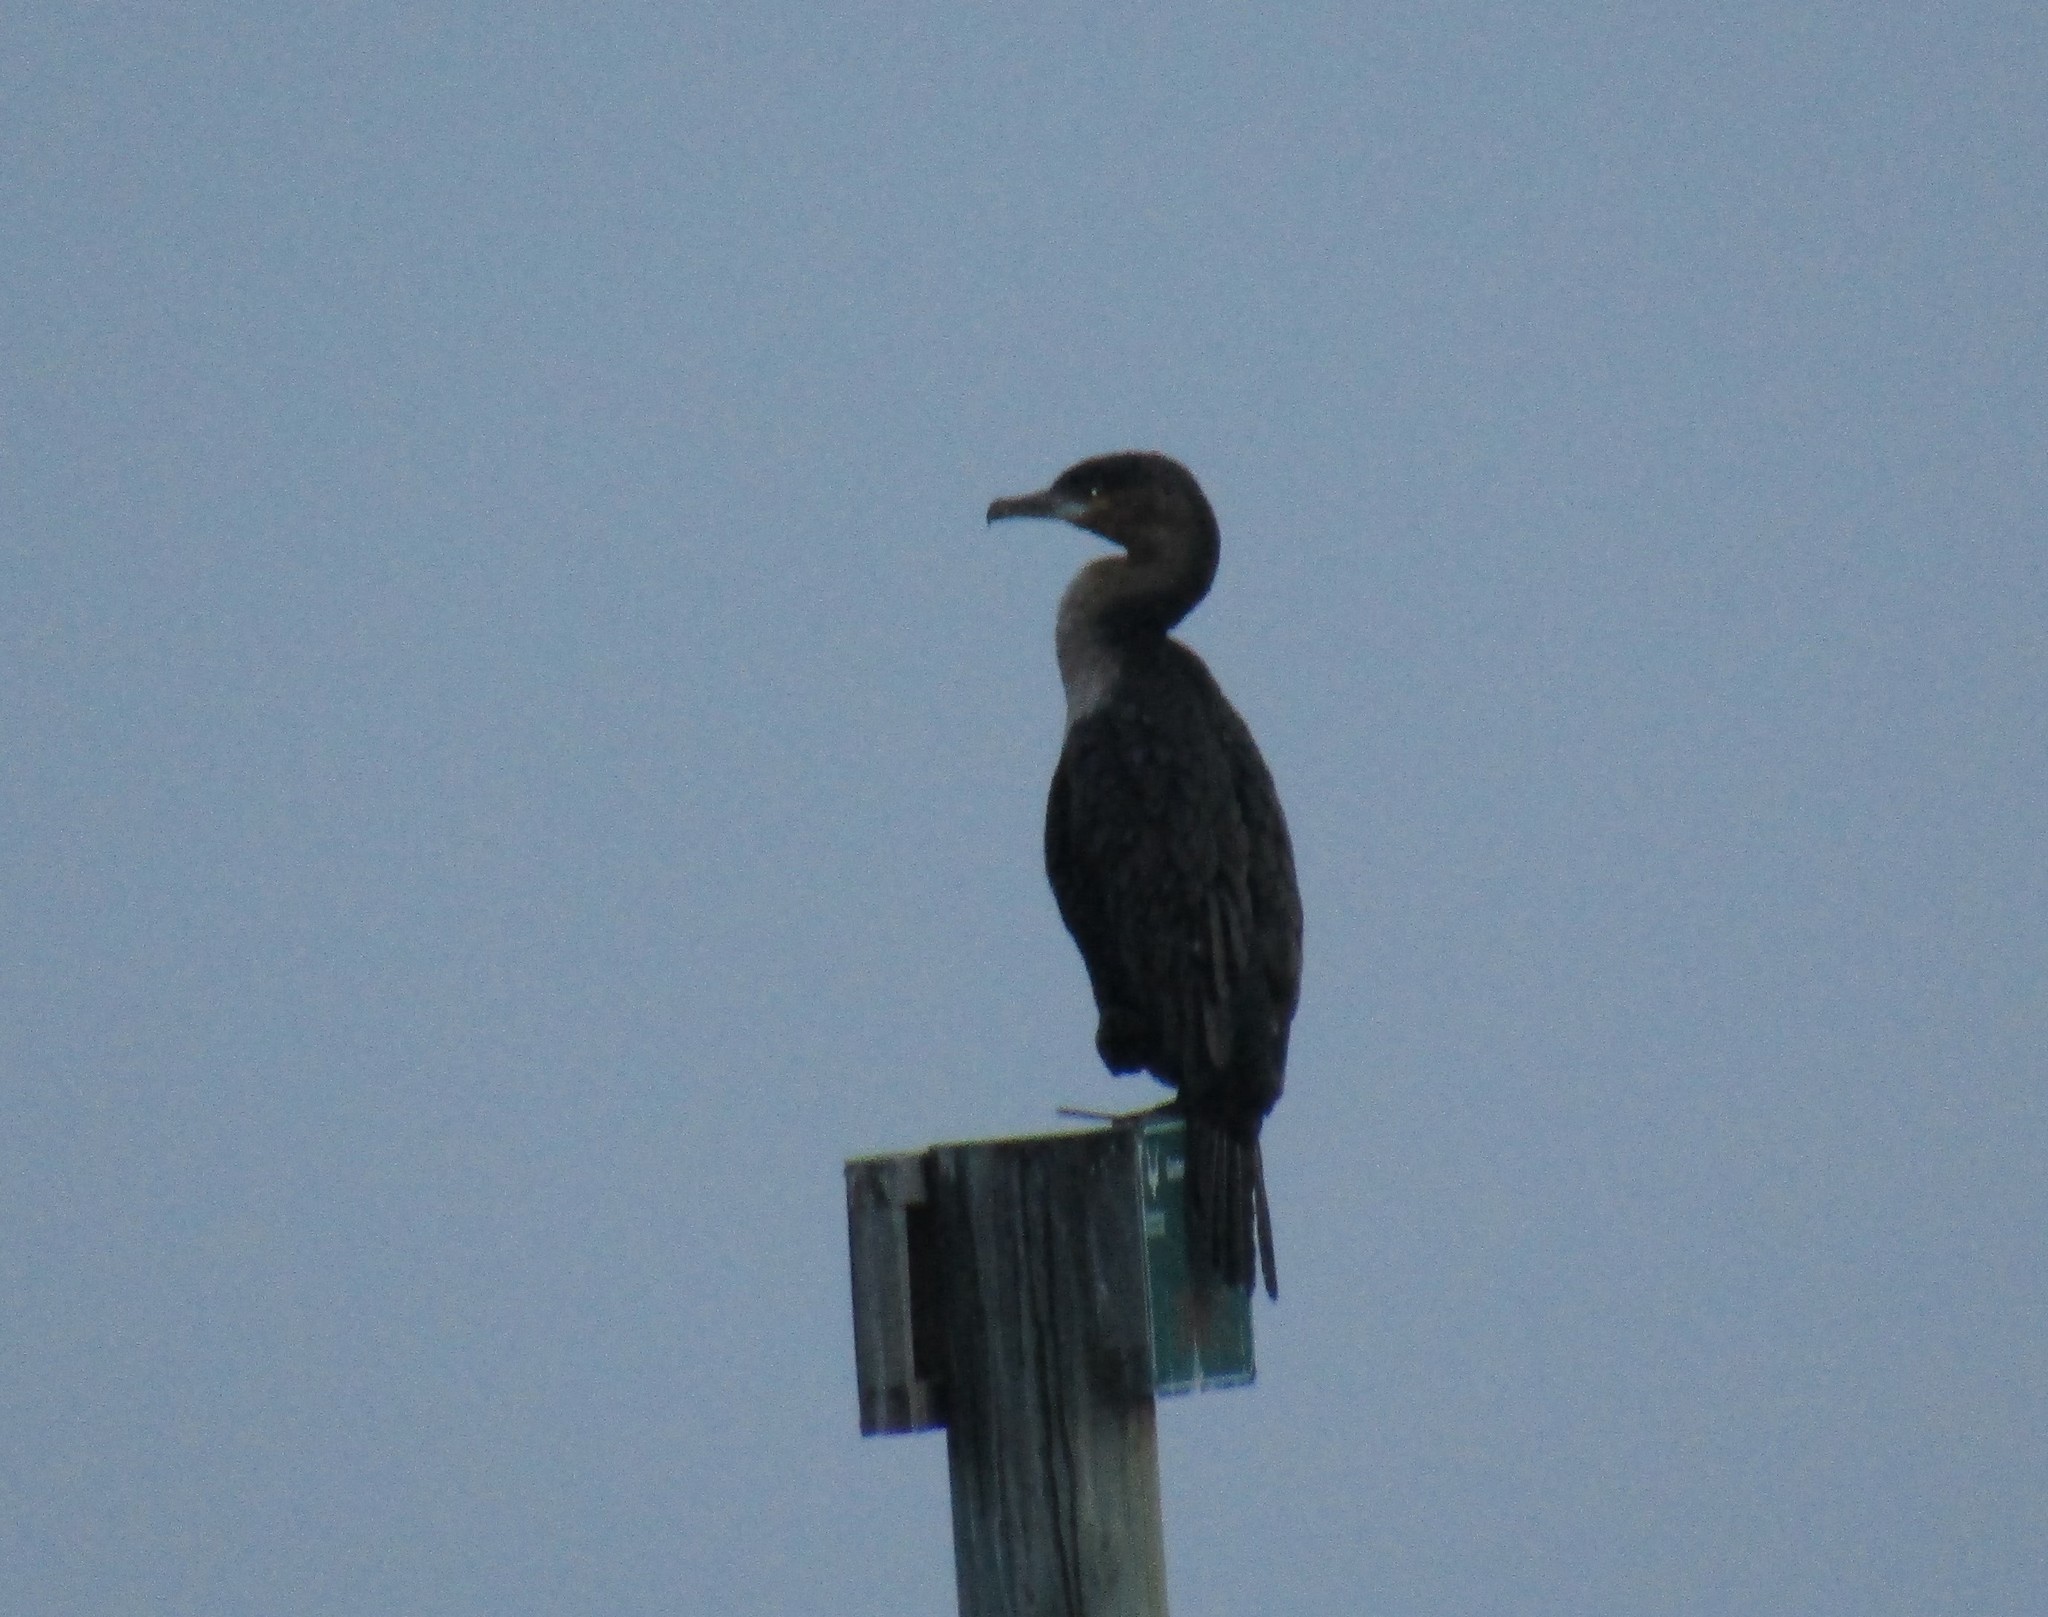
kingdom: Animalia
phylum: Chordata
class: Aves
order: Suliformes
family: Phalacrocoracidae
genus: Phalacrocorax
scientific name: Phalacrocorax carbo
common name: Great cormorant
